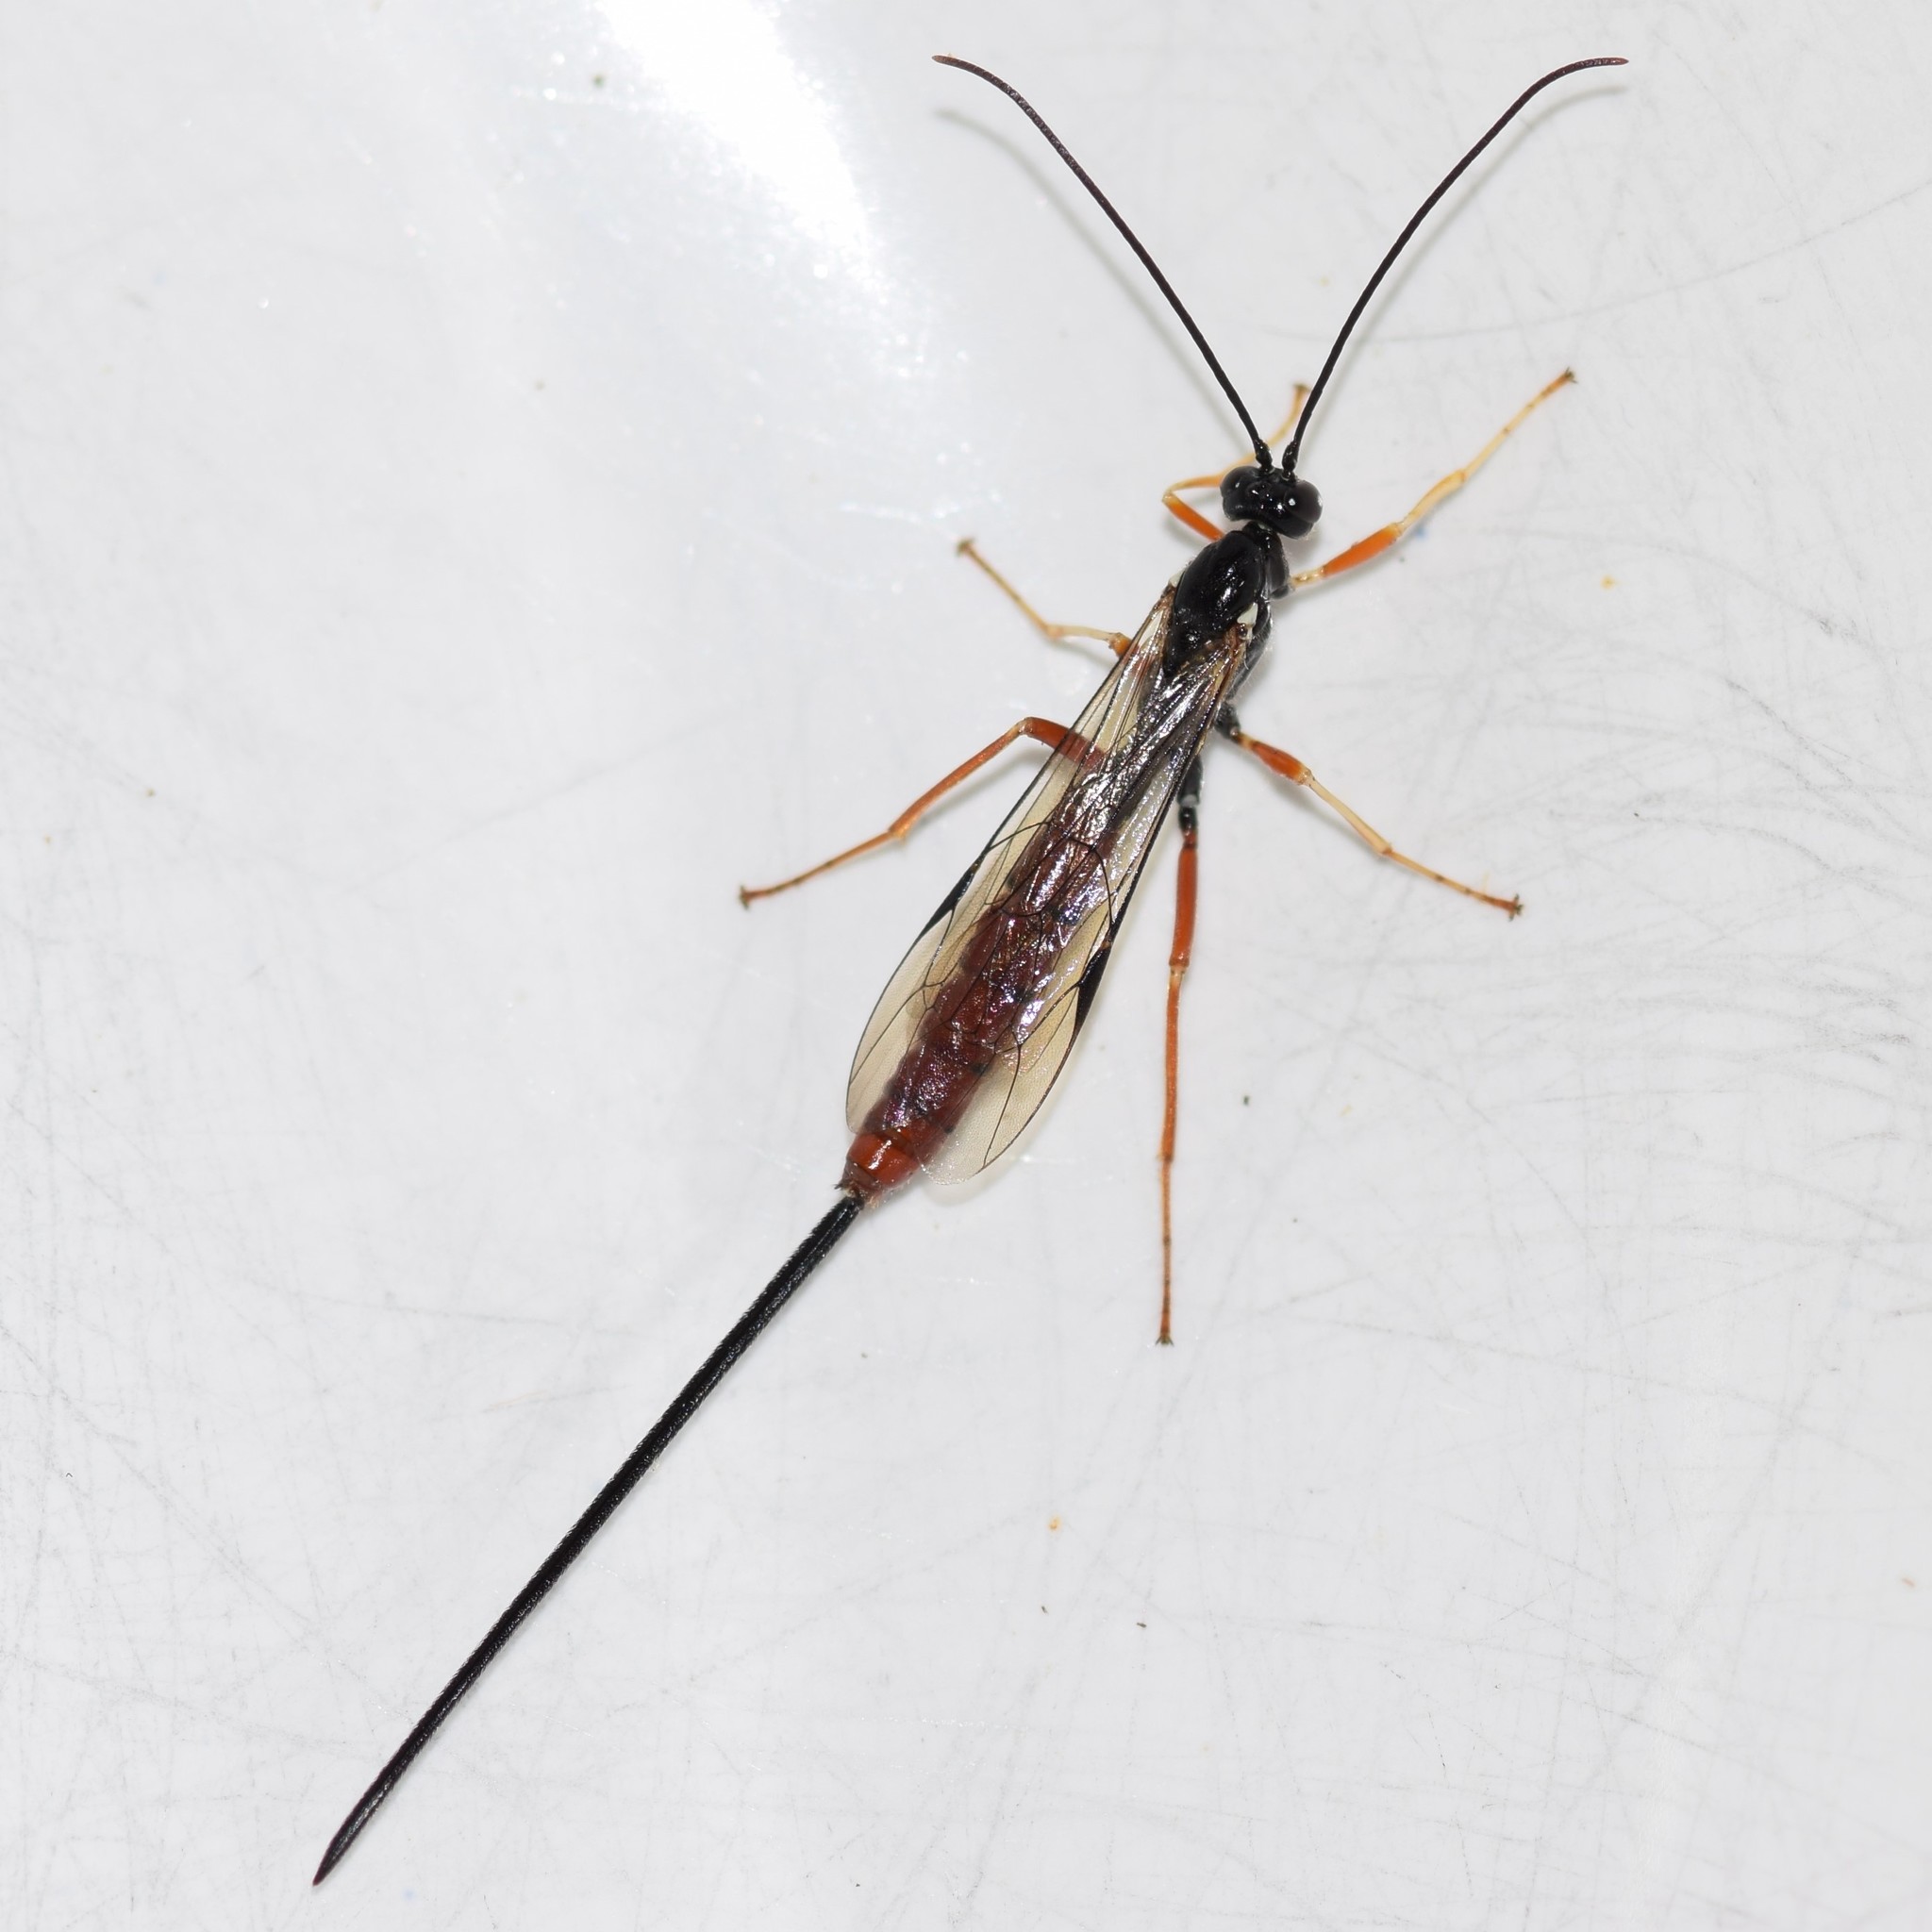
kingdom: Animalia
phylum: Arthropoda
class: Insecta
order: Hymenoptera
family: Ichneumonidae
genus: Dolichomitus
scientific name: Dolichomitus irritator
